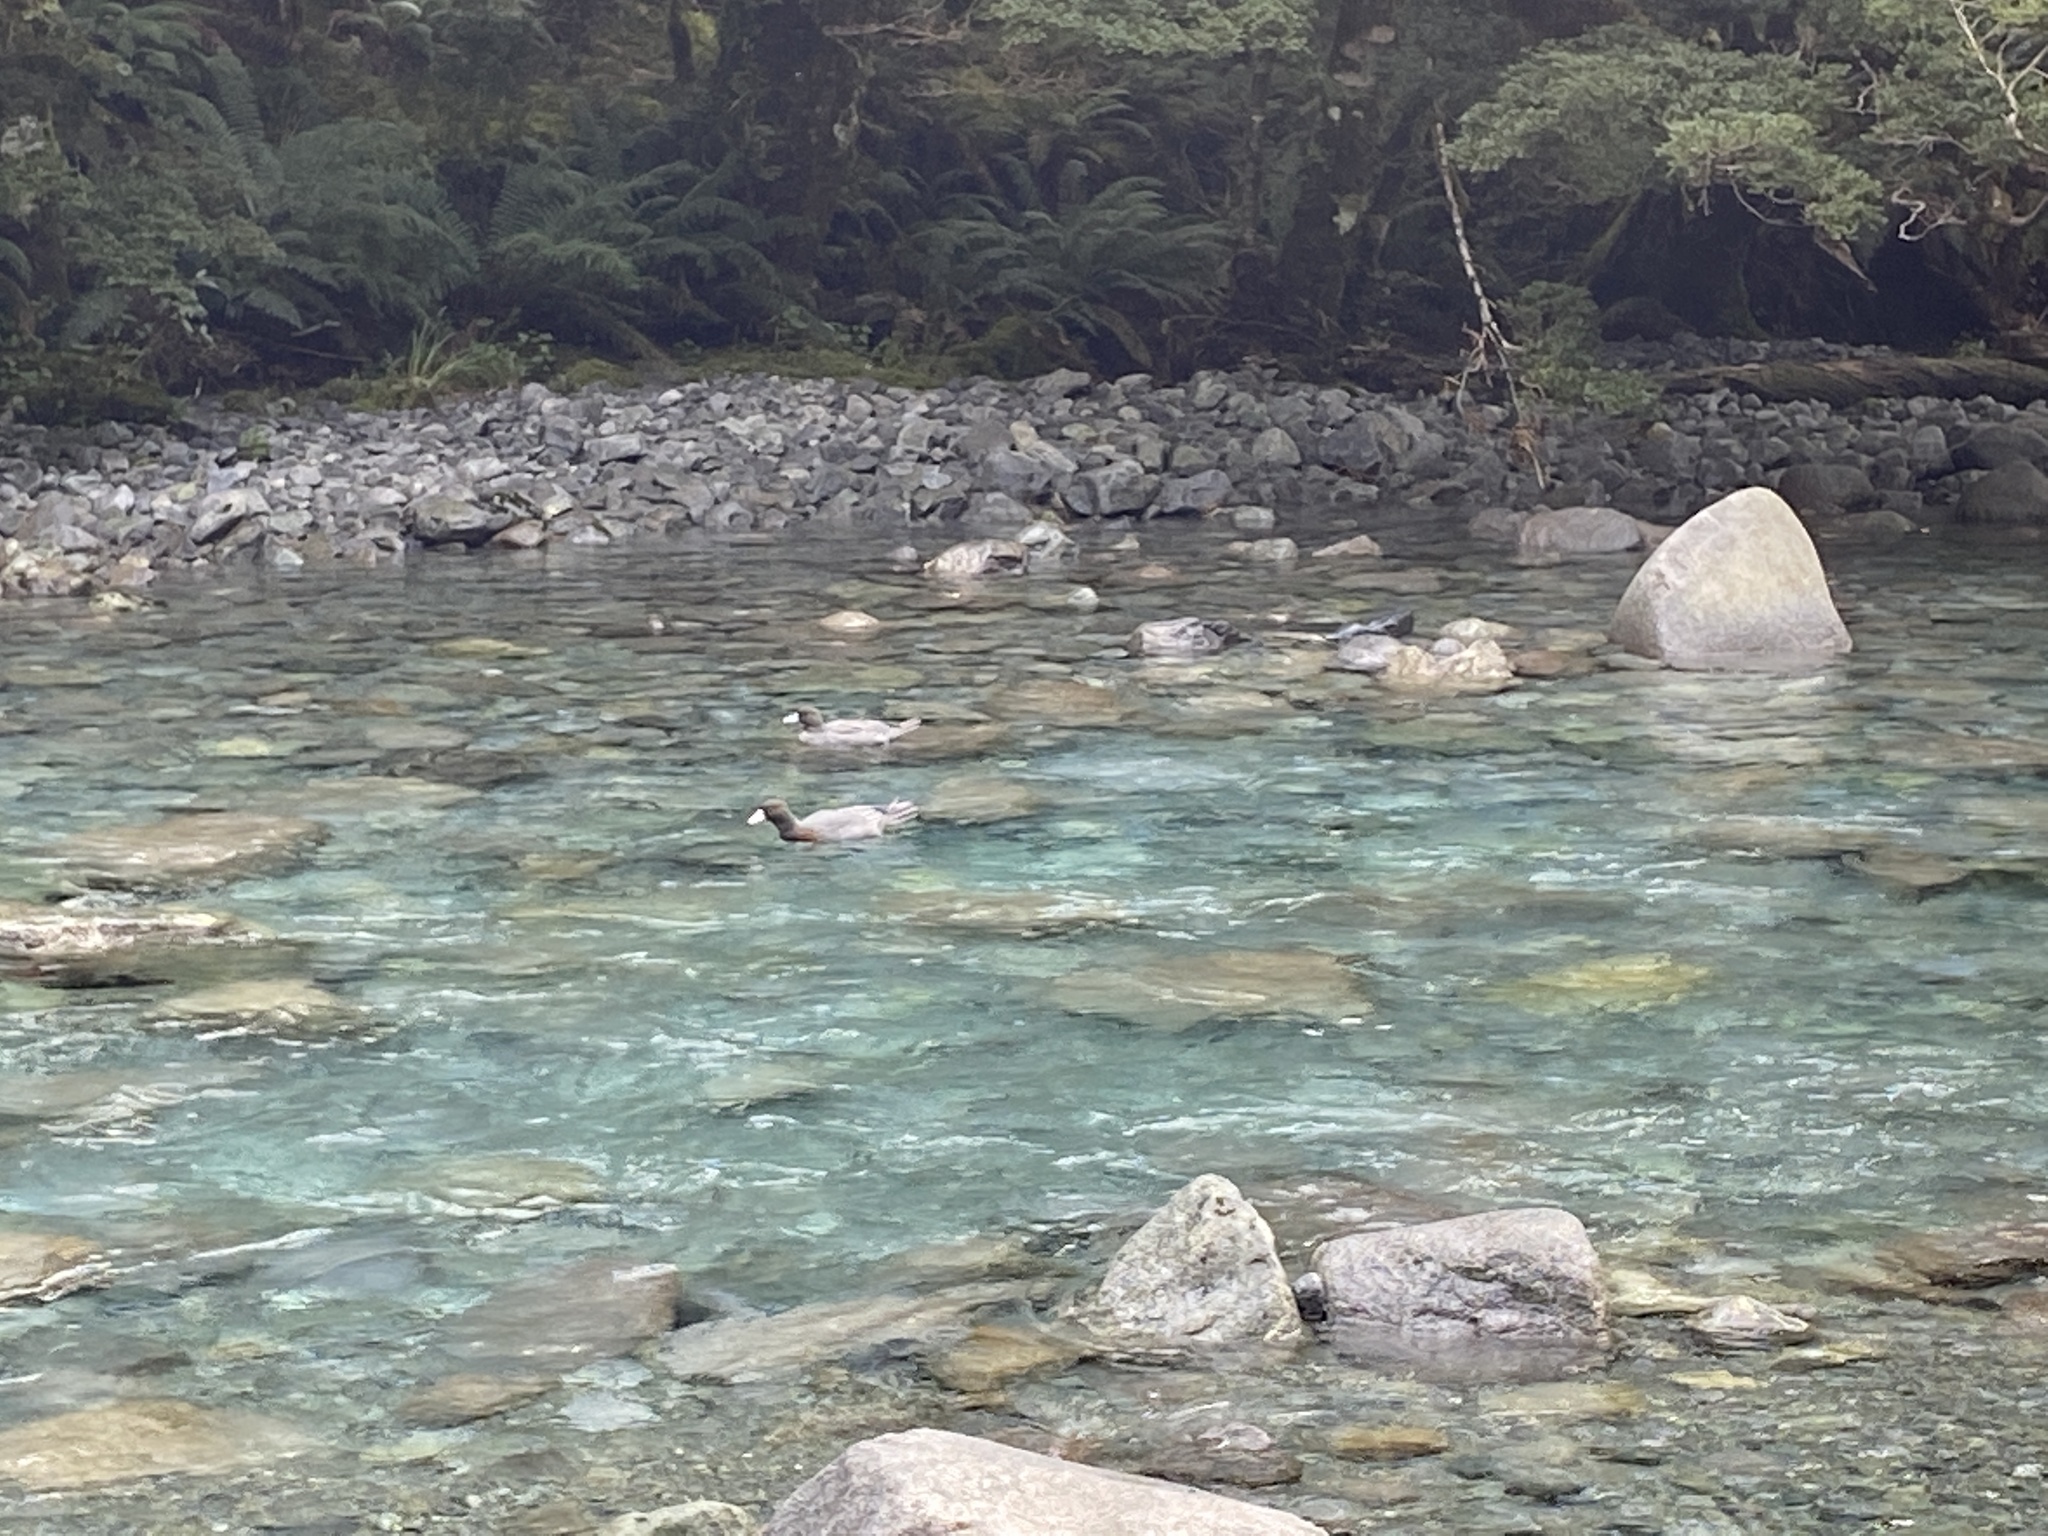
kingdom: Animalia
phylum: Chordata
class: Aves
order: Anseriformes
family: Anatidae
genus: Hymenolaimus
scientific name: Hymenolaimus malacorhynchos
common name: Blue duck
